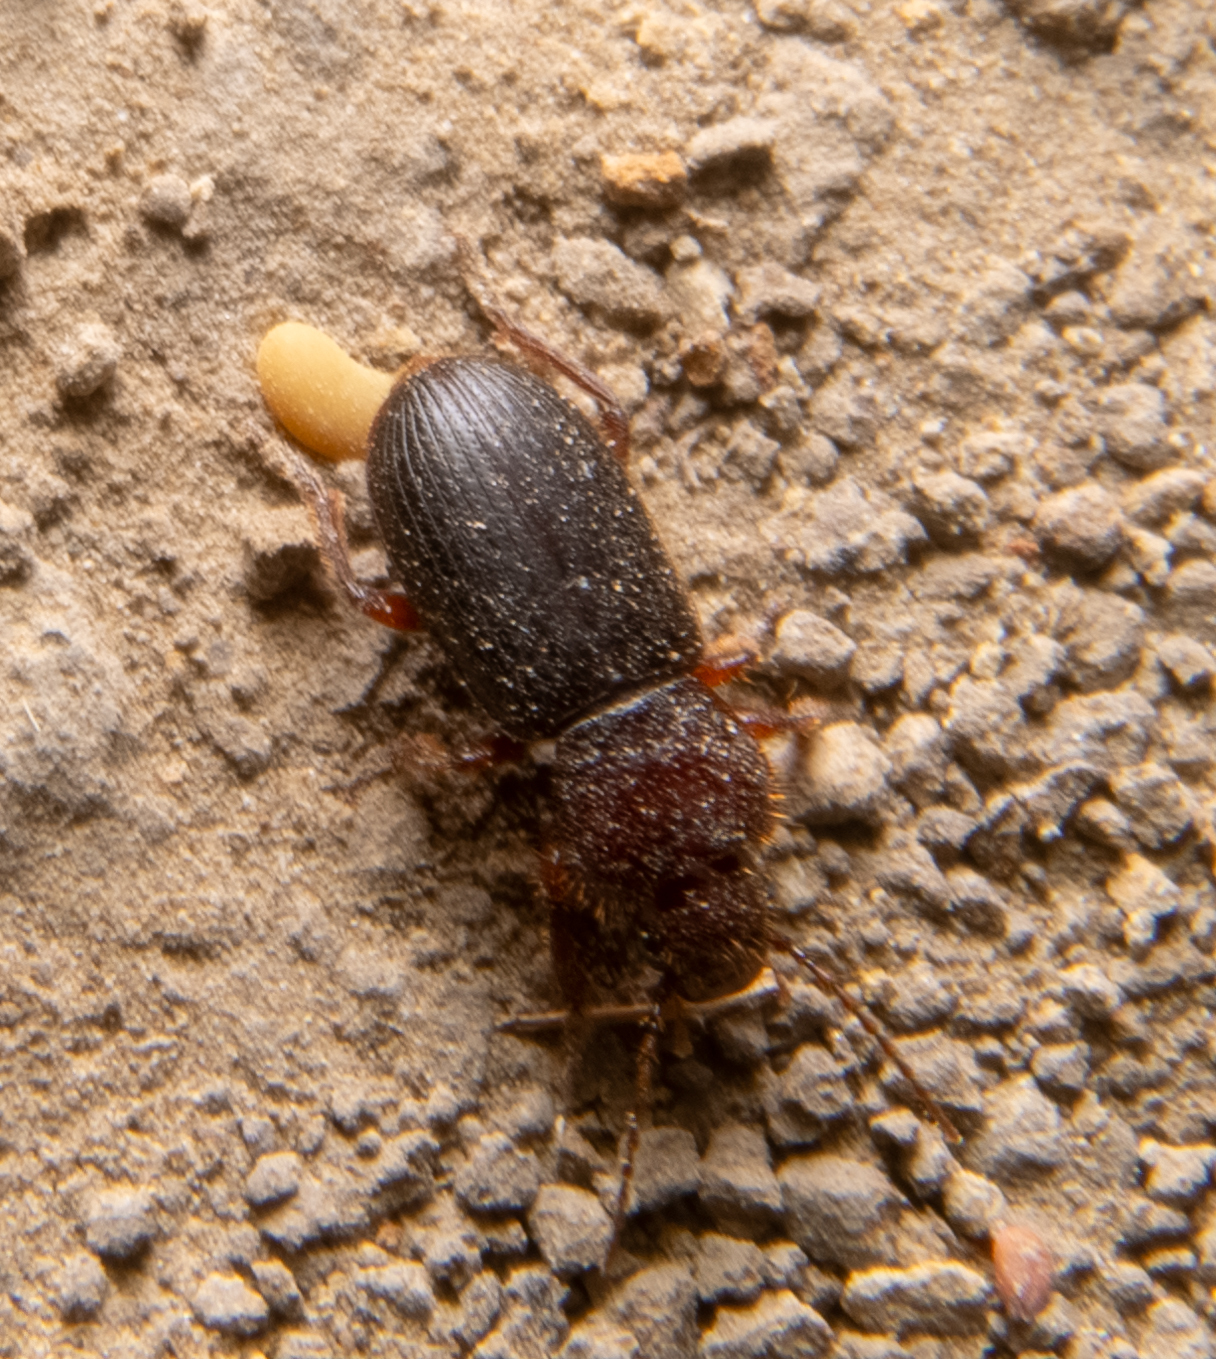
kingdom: Animalia
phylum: Arthropoda
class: Insecta
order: Coleoptera
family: Carabidae
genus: Dicheirus
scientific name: Dicheirus dilatatus
